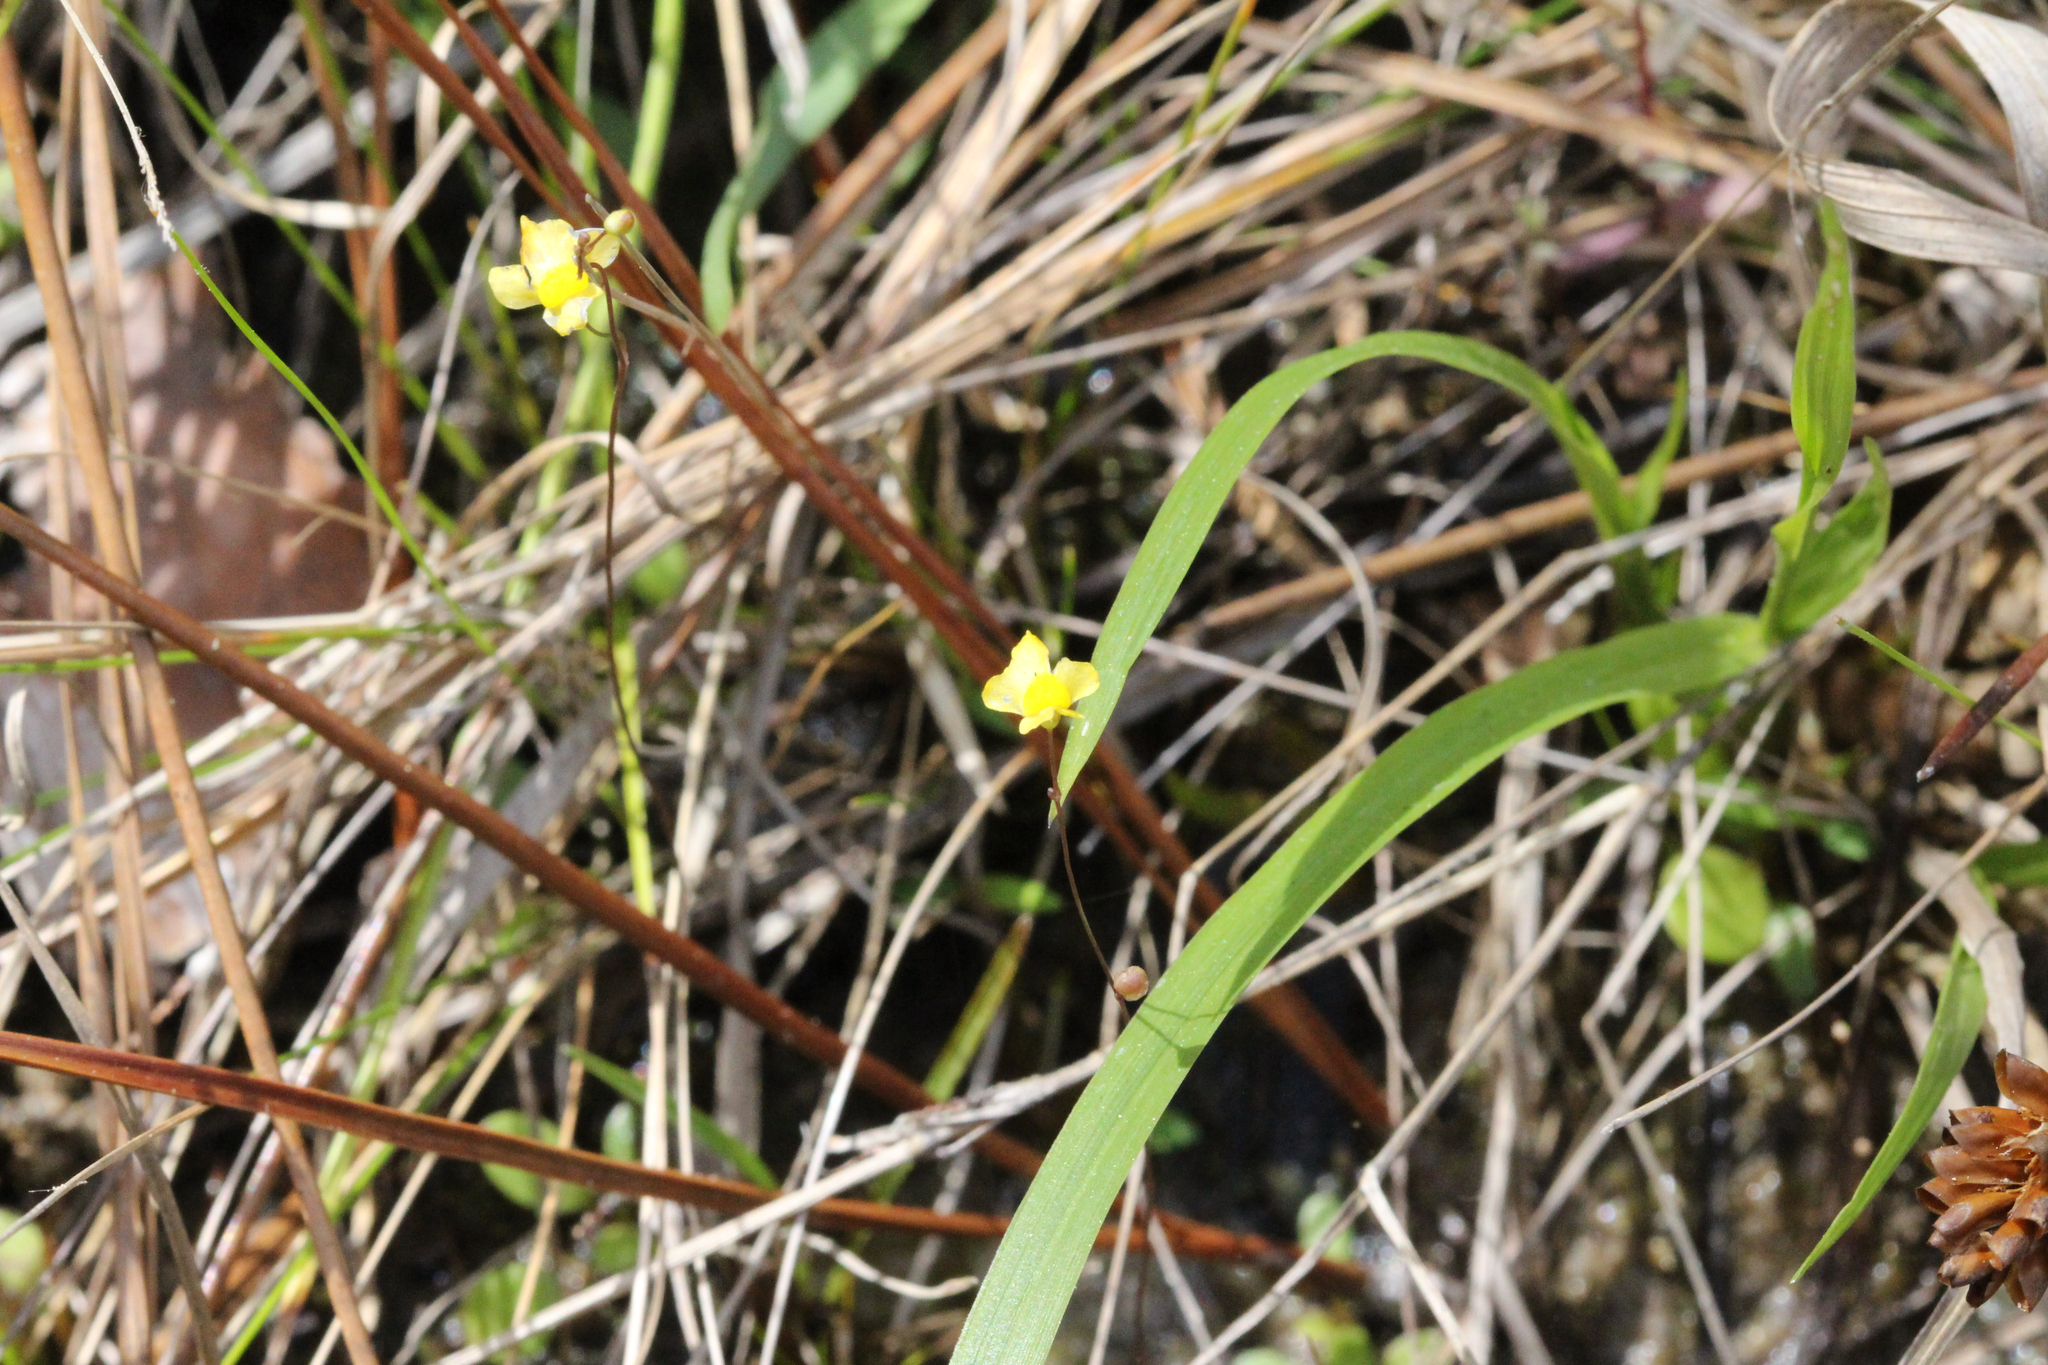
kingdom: Plantae
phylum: Tracheophyta
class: Magnoliopsida
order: Lamiales
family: Lentibulariaceae
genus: Utricularia
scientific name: Utricularia subulata
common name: Tiny bladderwort
